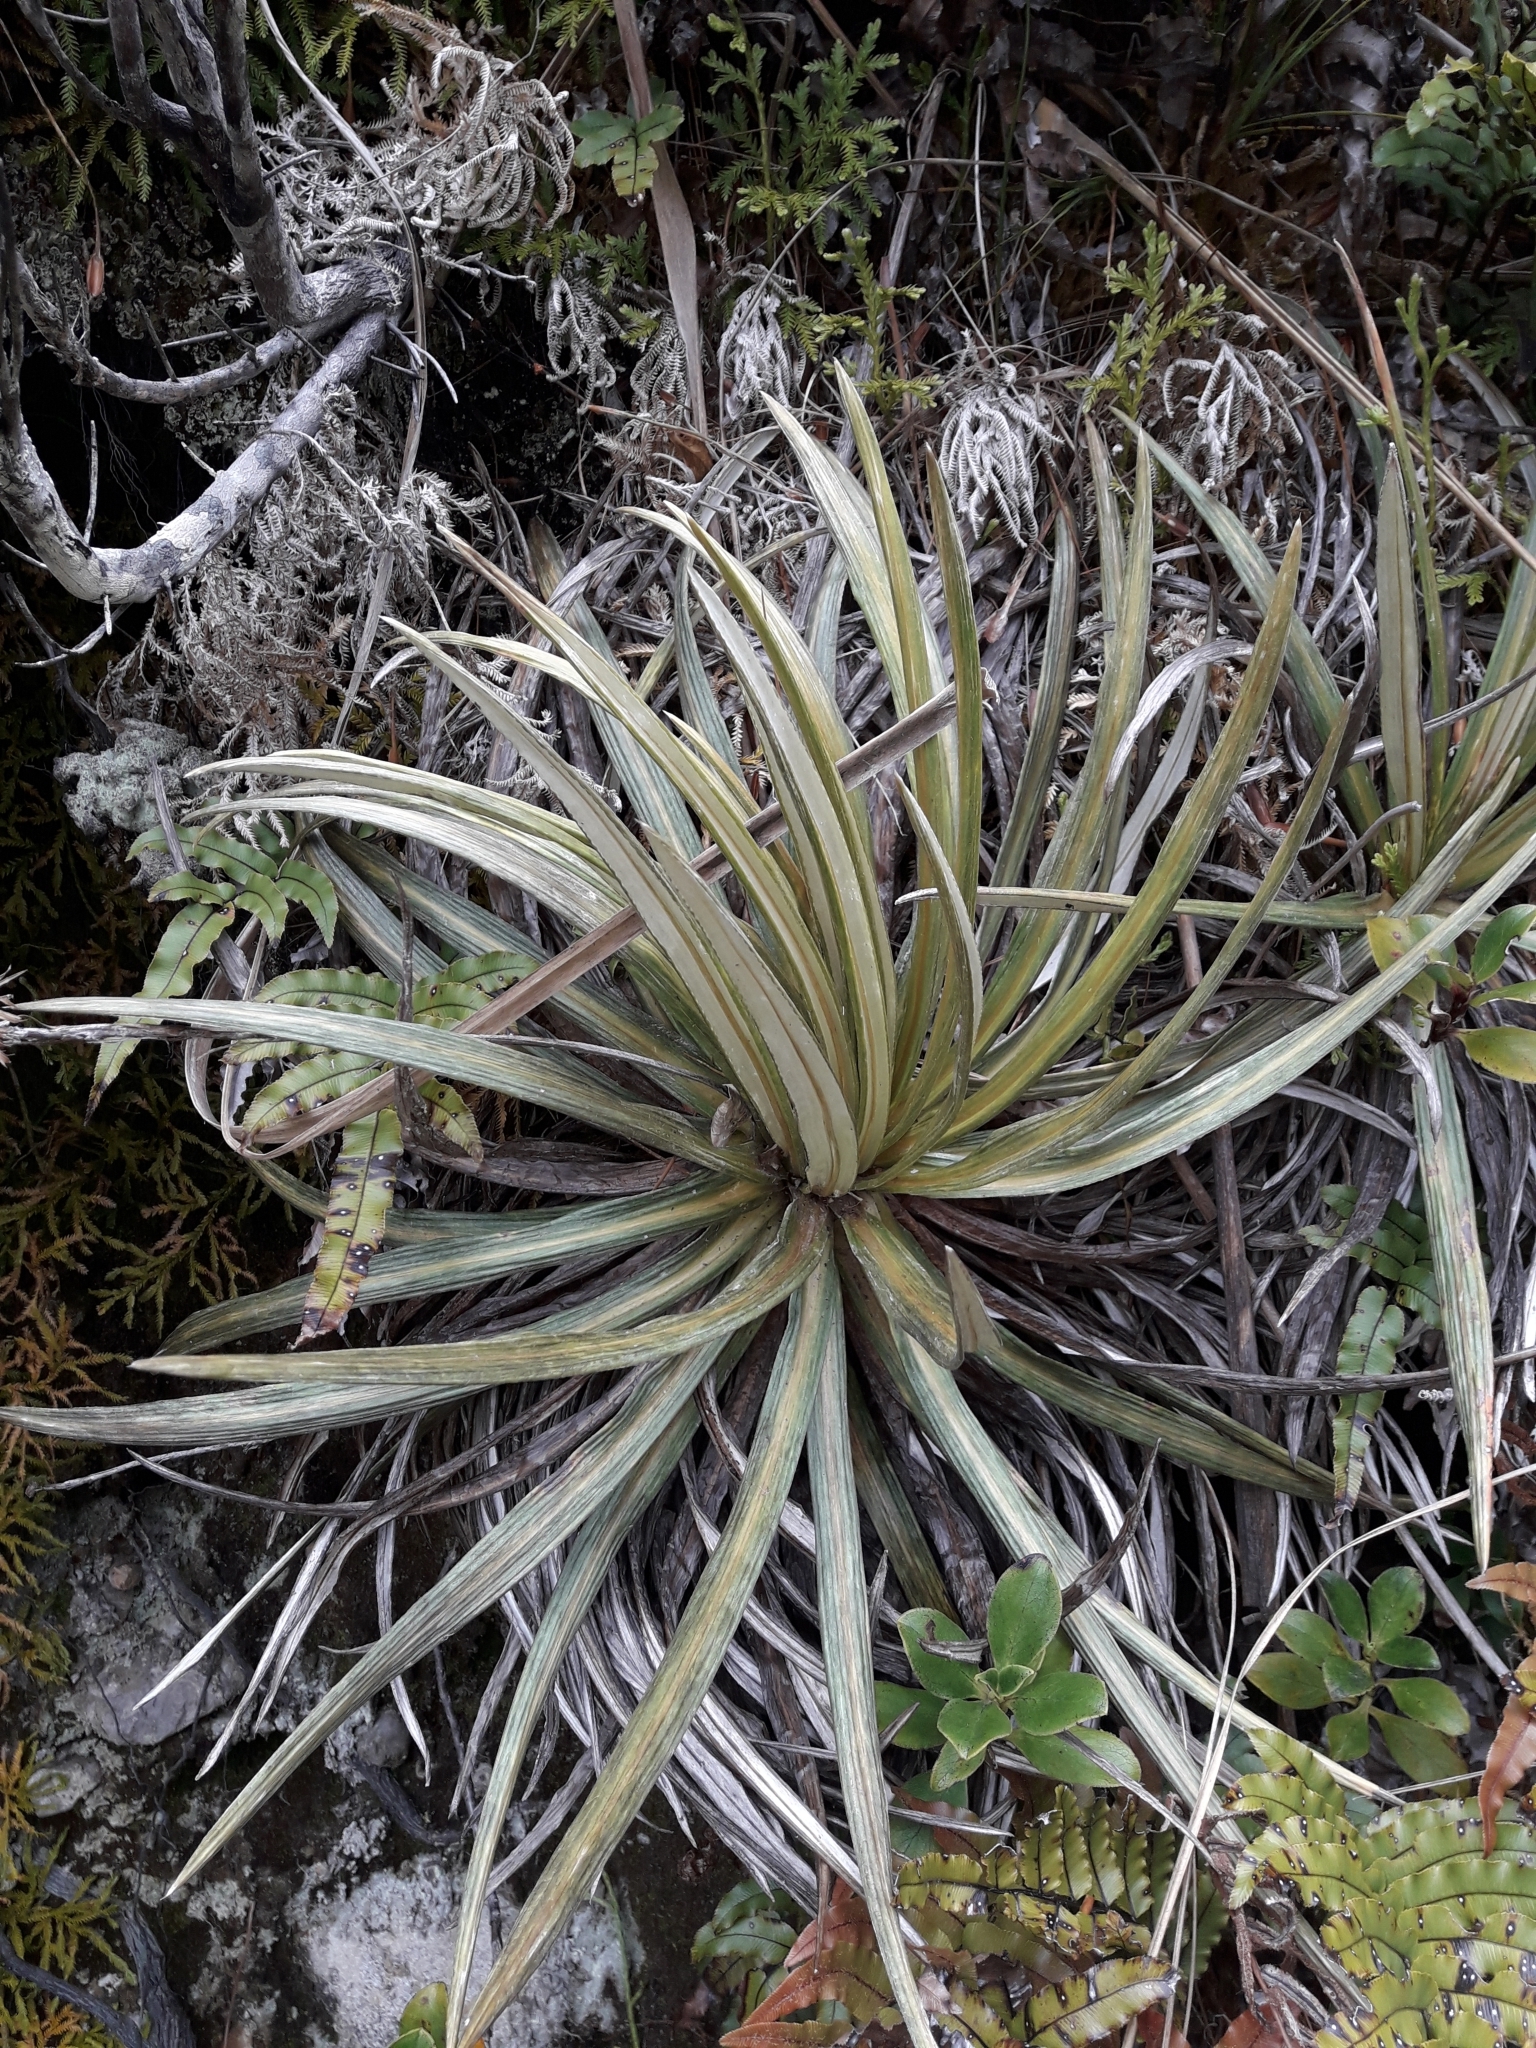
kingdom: Plantae
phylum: Tracheophyta
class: Magnoliopsida
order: Asterales
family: Asteraceae
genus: Celmisia
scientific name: Celmisia armstrongii
